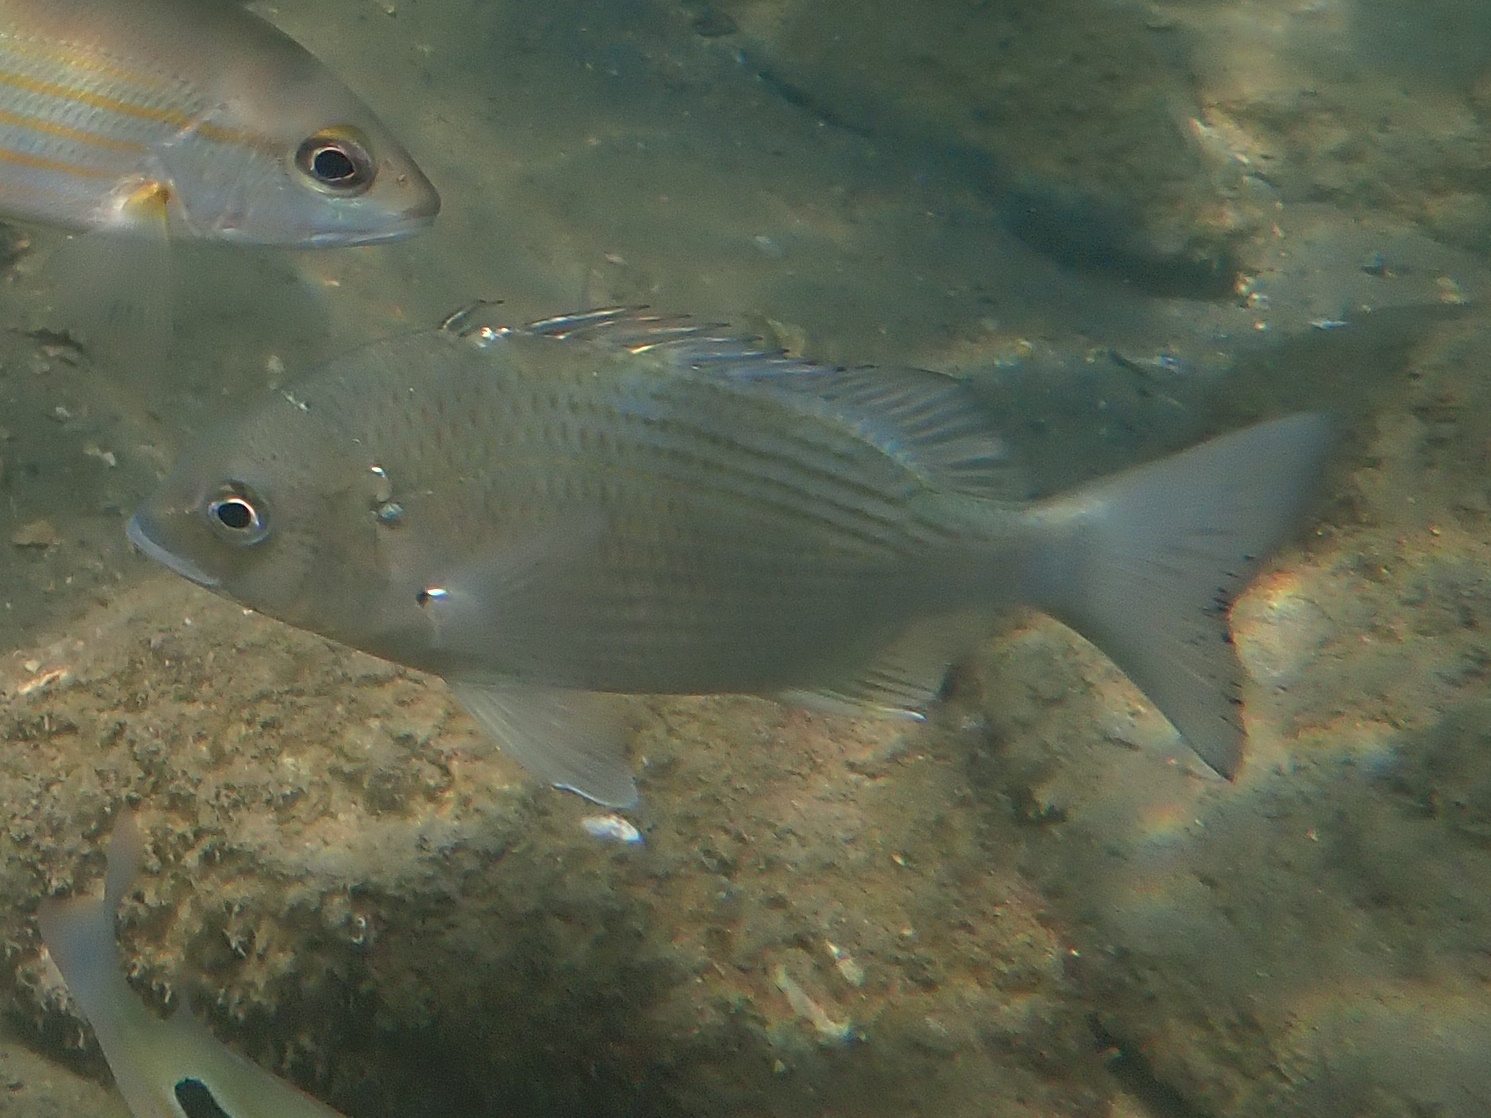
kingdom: Animalia
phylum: Chordata
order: Perciformes
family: Sparidae
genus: Acanthopagrus
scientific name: Acanthopagrus australis
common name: Surf bream
